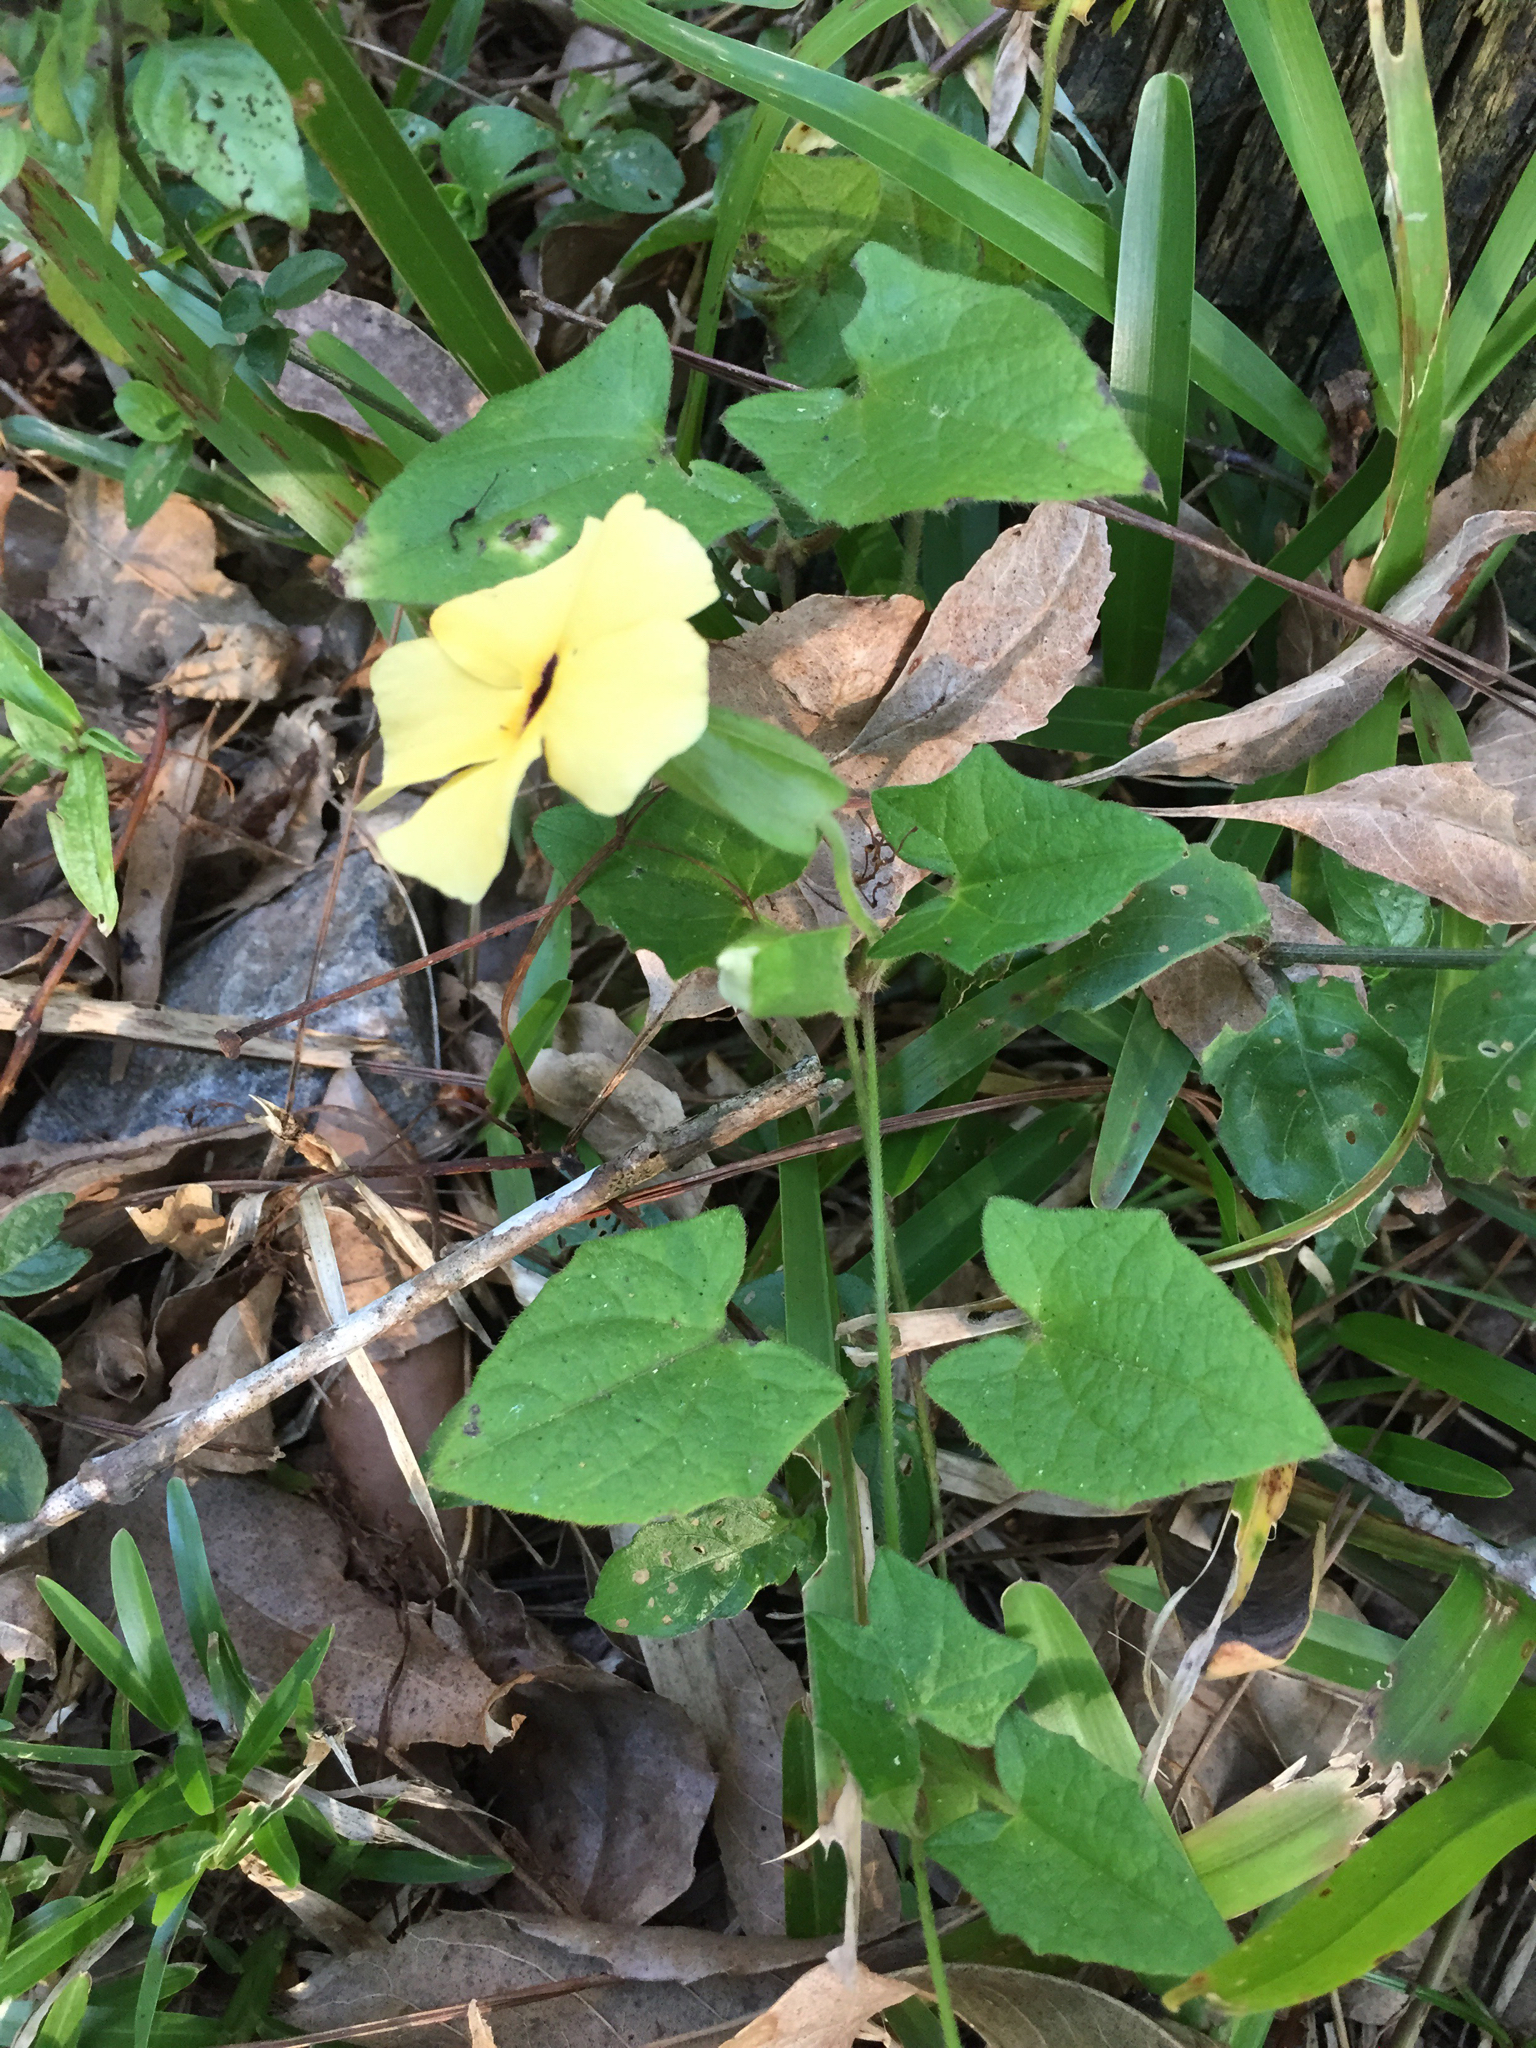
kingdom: Plantae
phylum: Tracheophyta
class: Magnoliopsida
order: Lamiales
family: Acanthaceae
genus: Thunbergia
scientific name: Thunbergia alata
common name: Blackeyed susan vine
